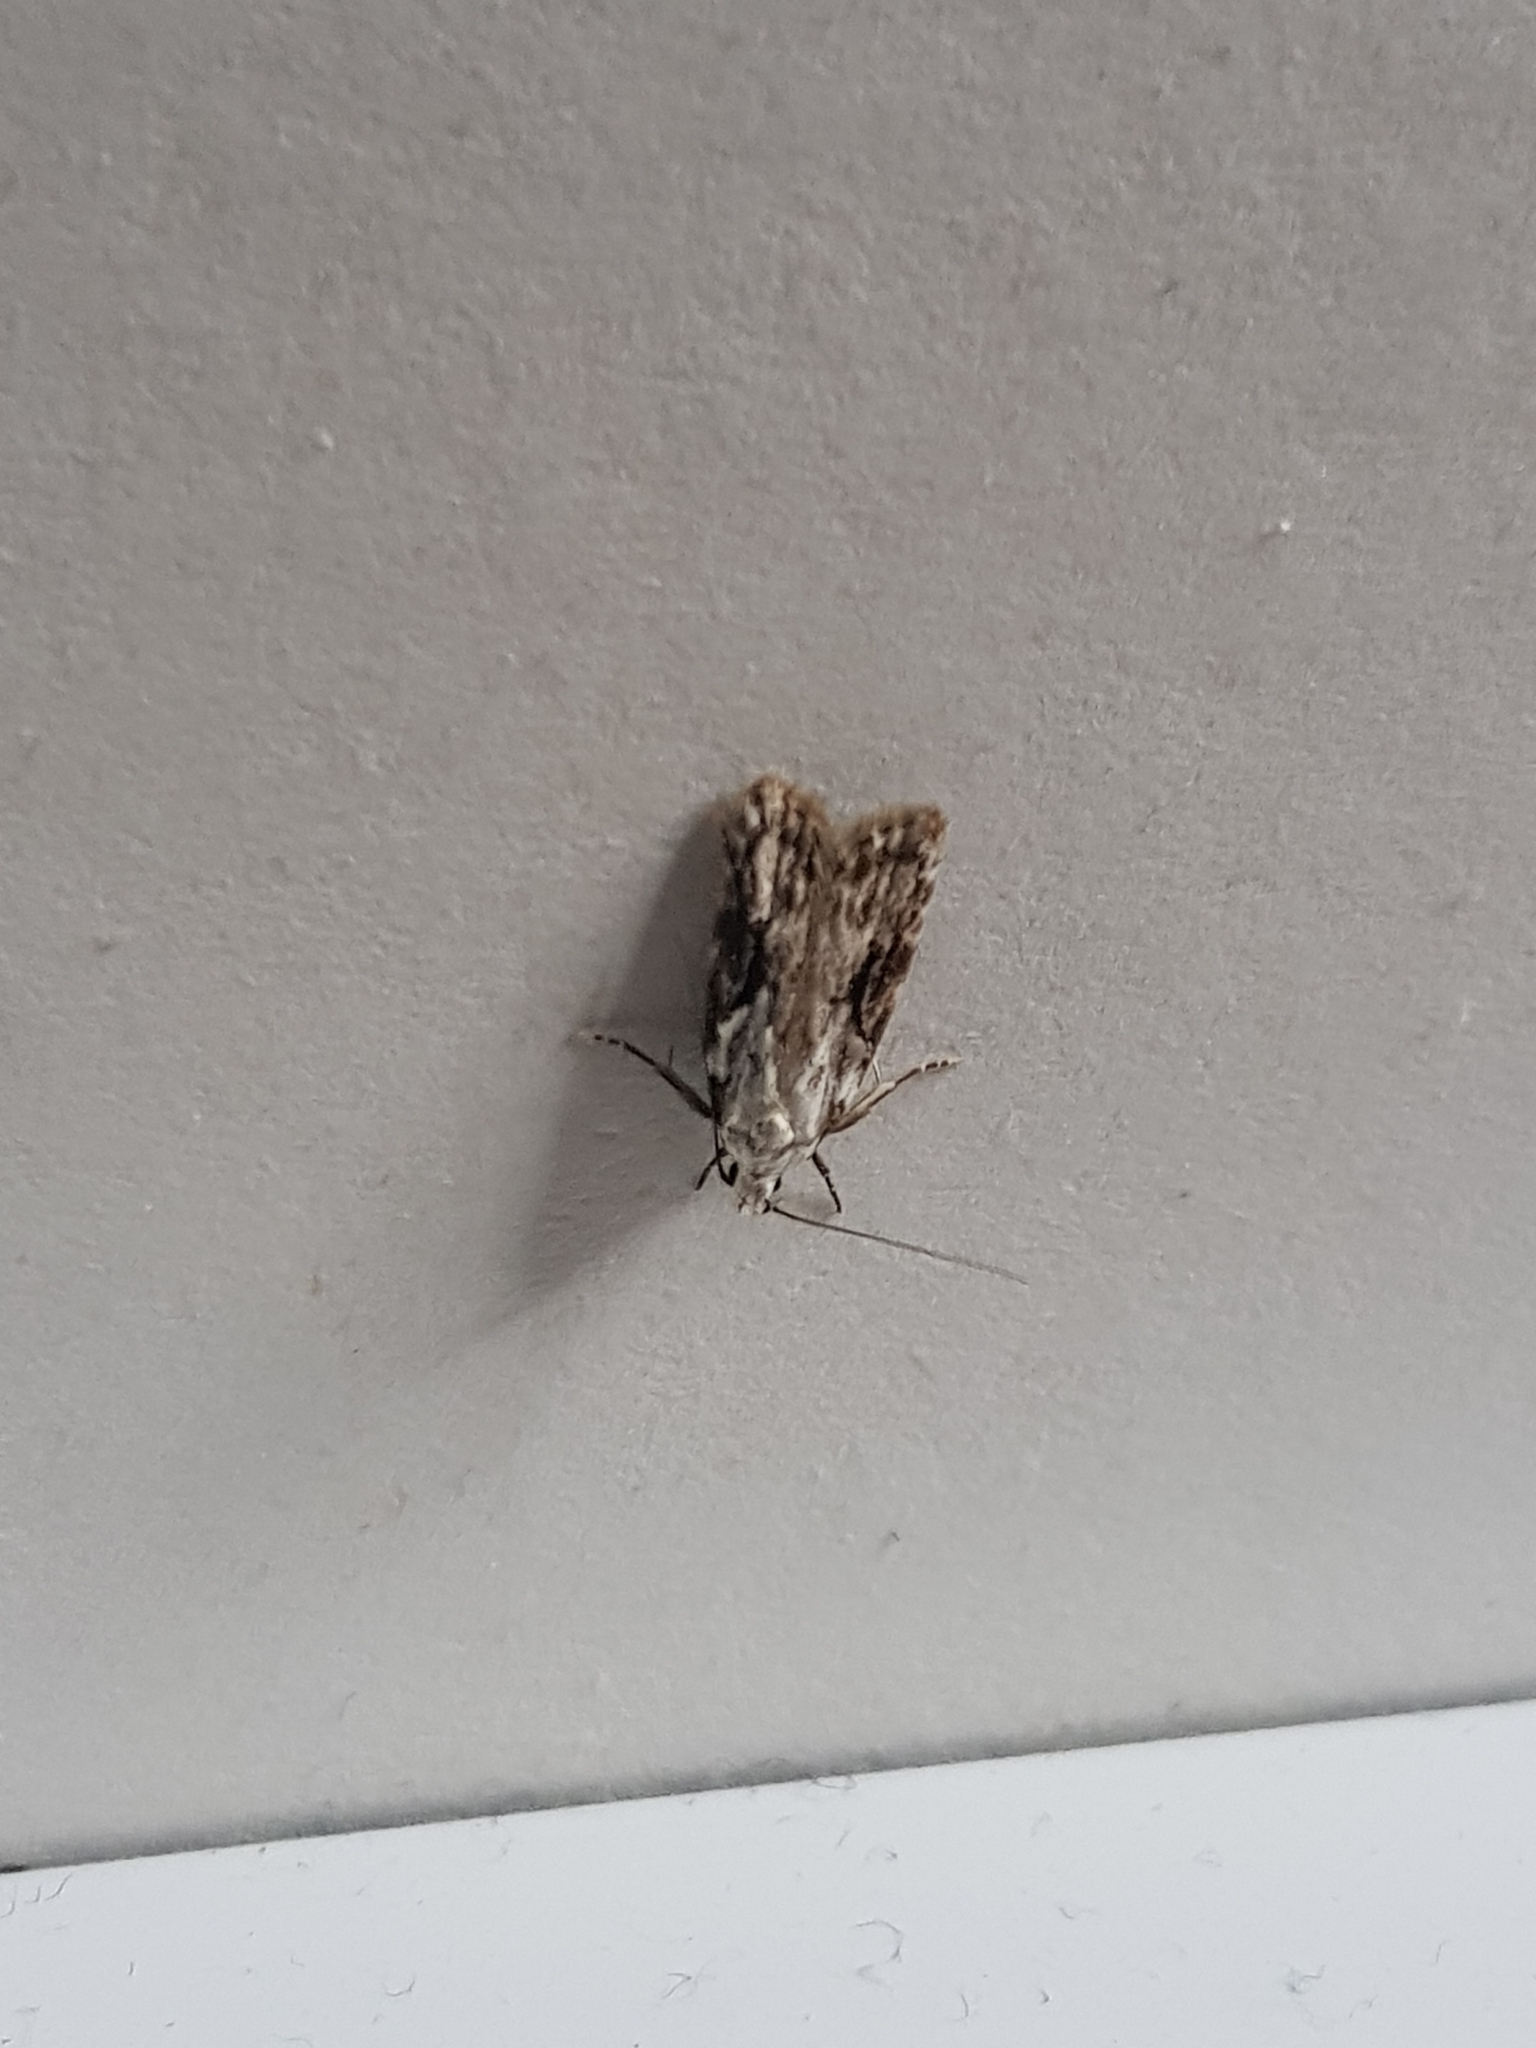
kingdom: Animalia
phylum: Arthropoda
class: Insecta
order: Lepidoptera
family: Oecophoridae
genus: Izatha
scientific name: Izatha mesoschista
